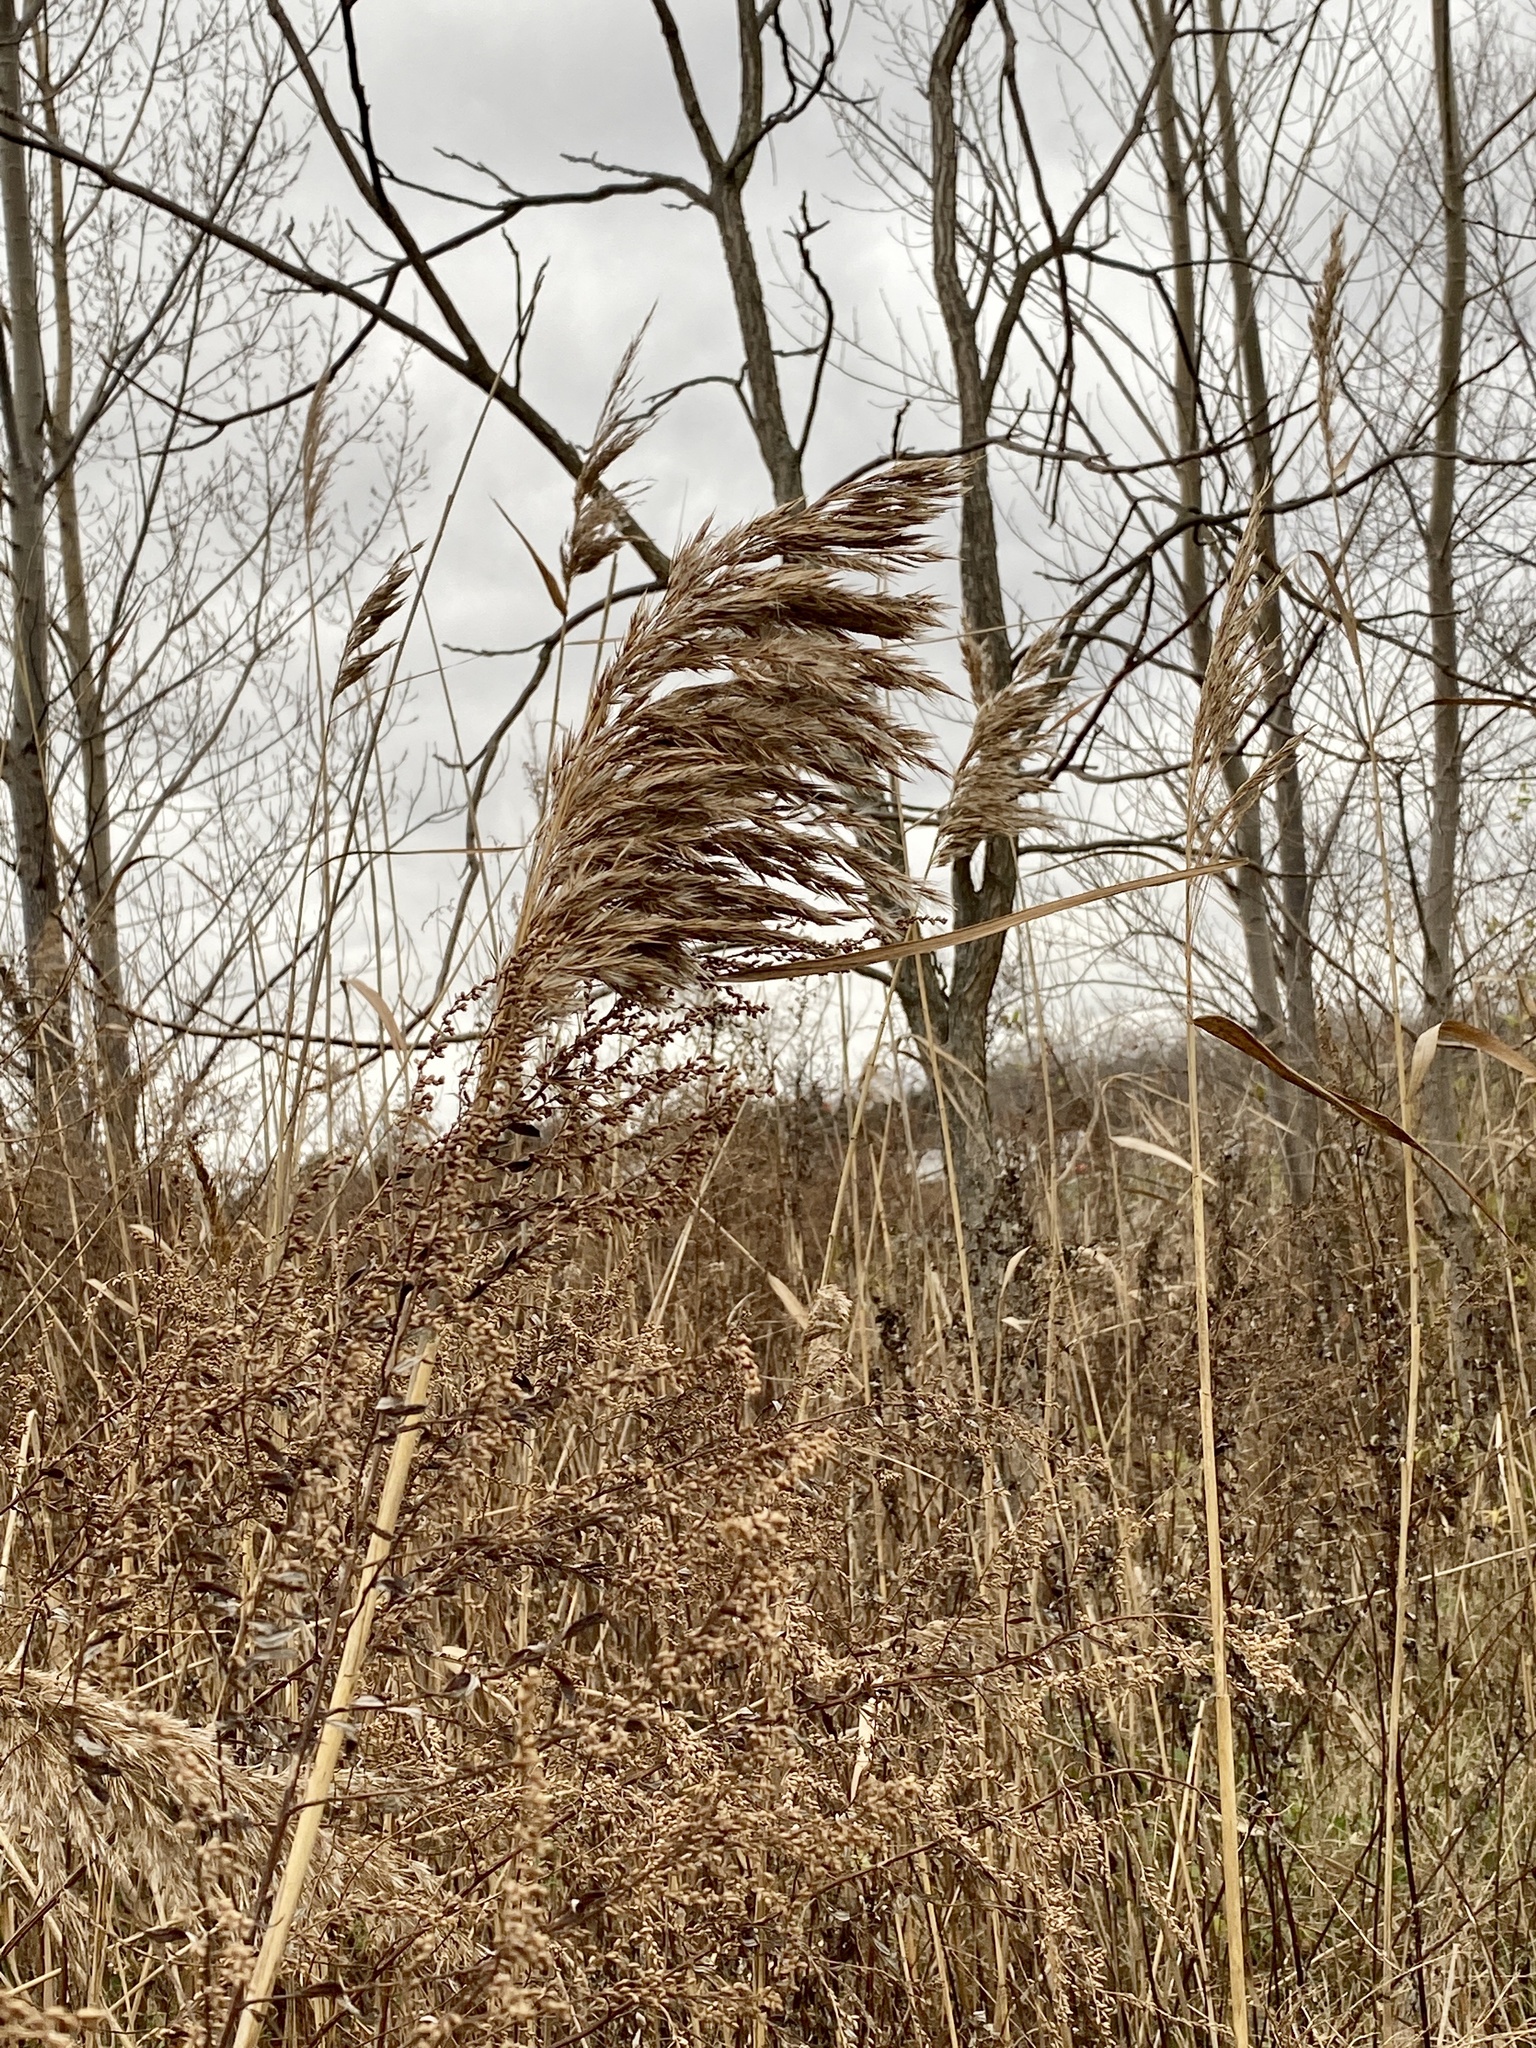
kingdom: Plantae
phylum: Tracheophyta
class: Liliopsida
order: Poales
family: Poaceae
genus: Phragmites
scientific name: Phragmites australis
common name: Common reed
